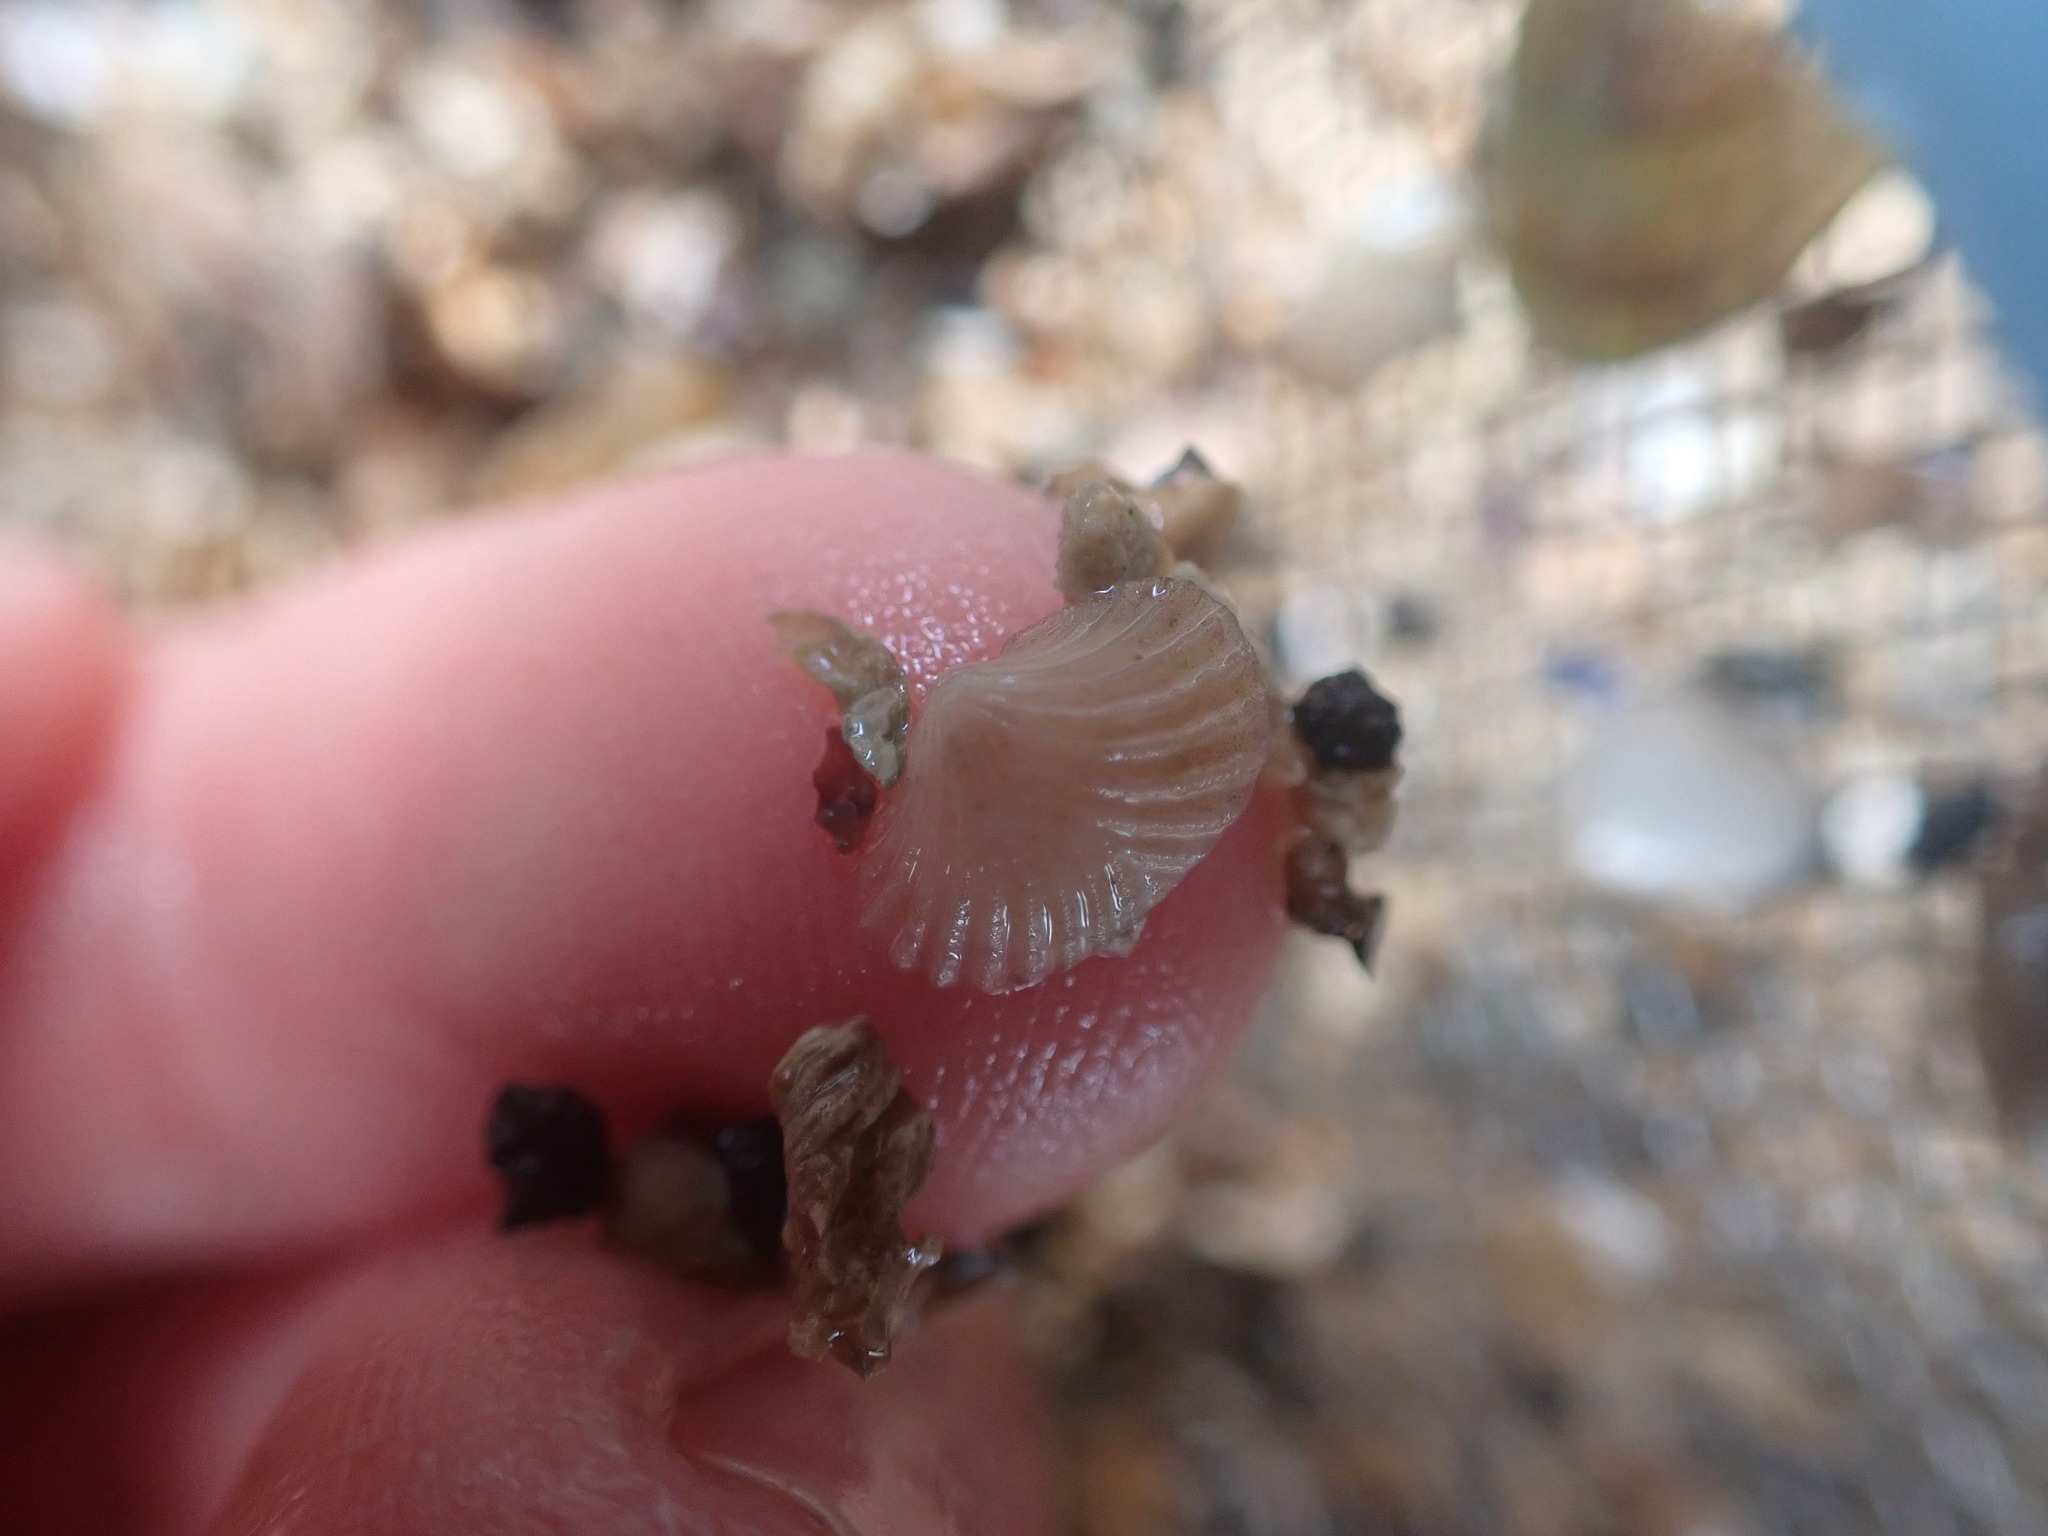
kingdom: Animalia
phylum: Mollusca
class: Bivalvia
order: Galeommatida
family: Lasaeidae
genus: Myllita
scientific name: Myllita stowei
